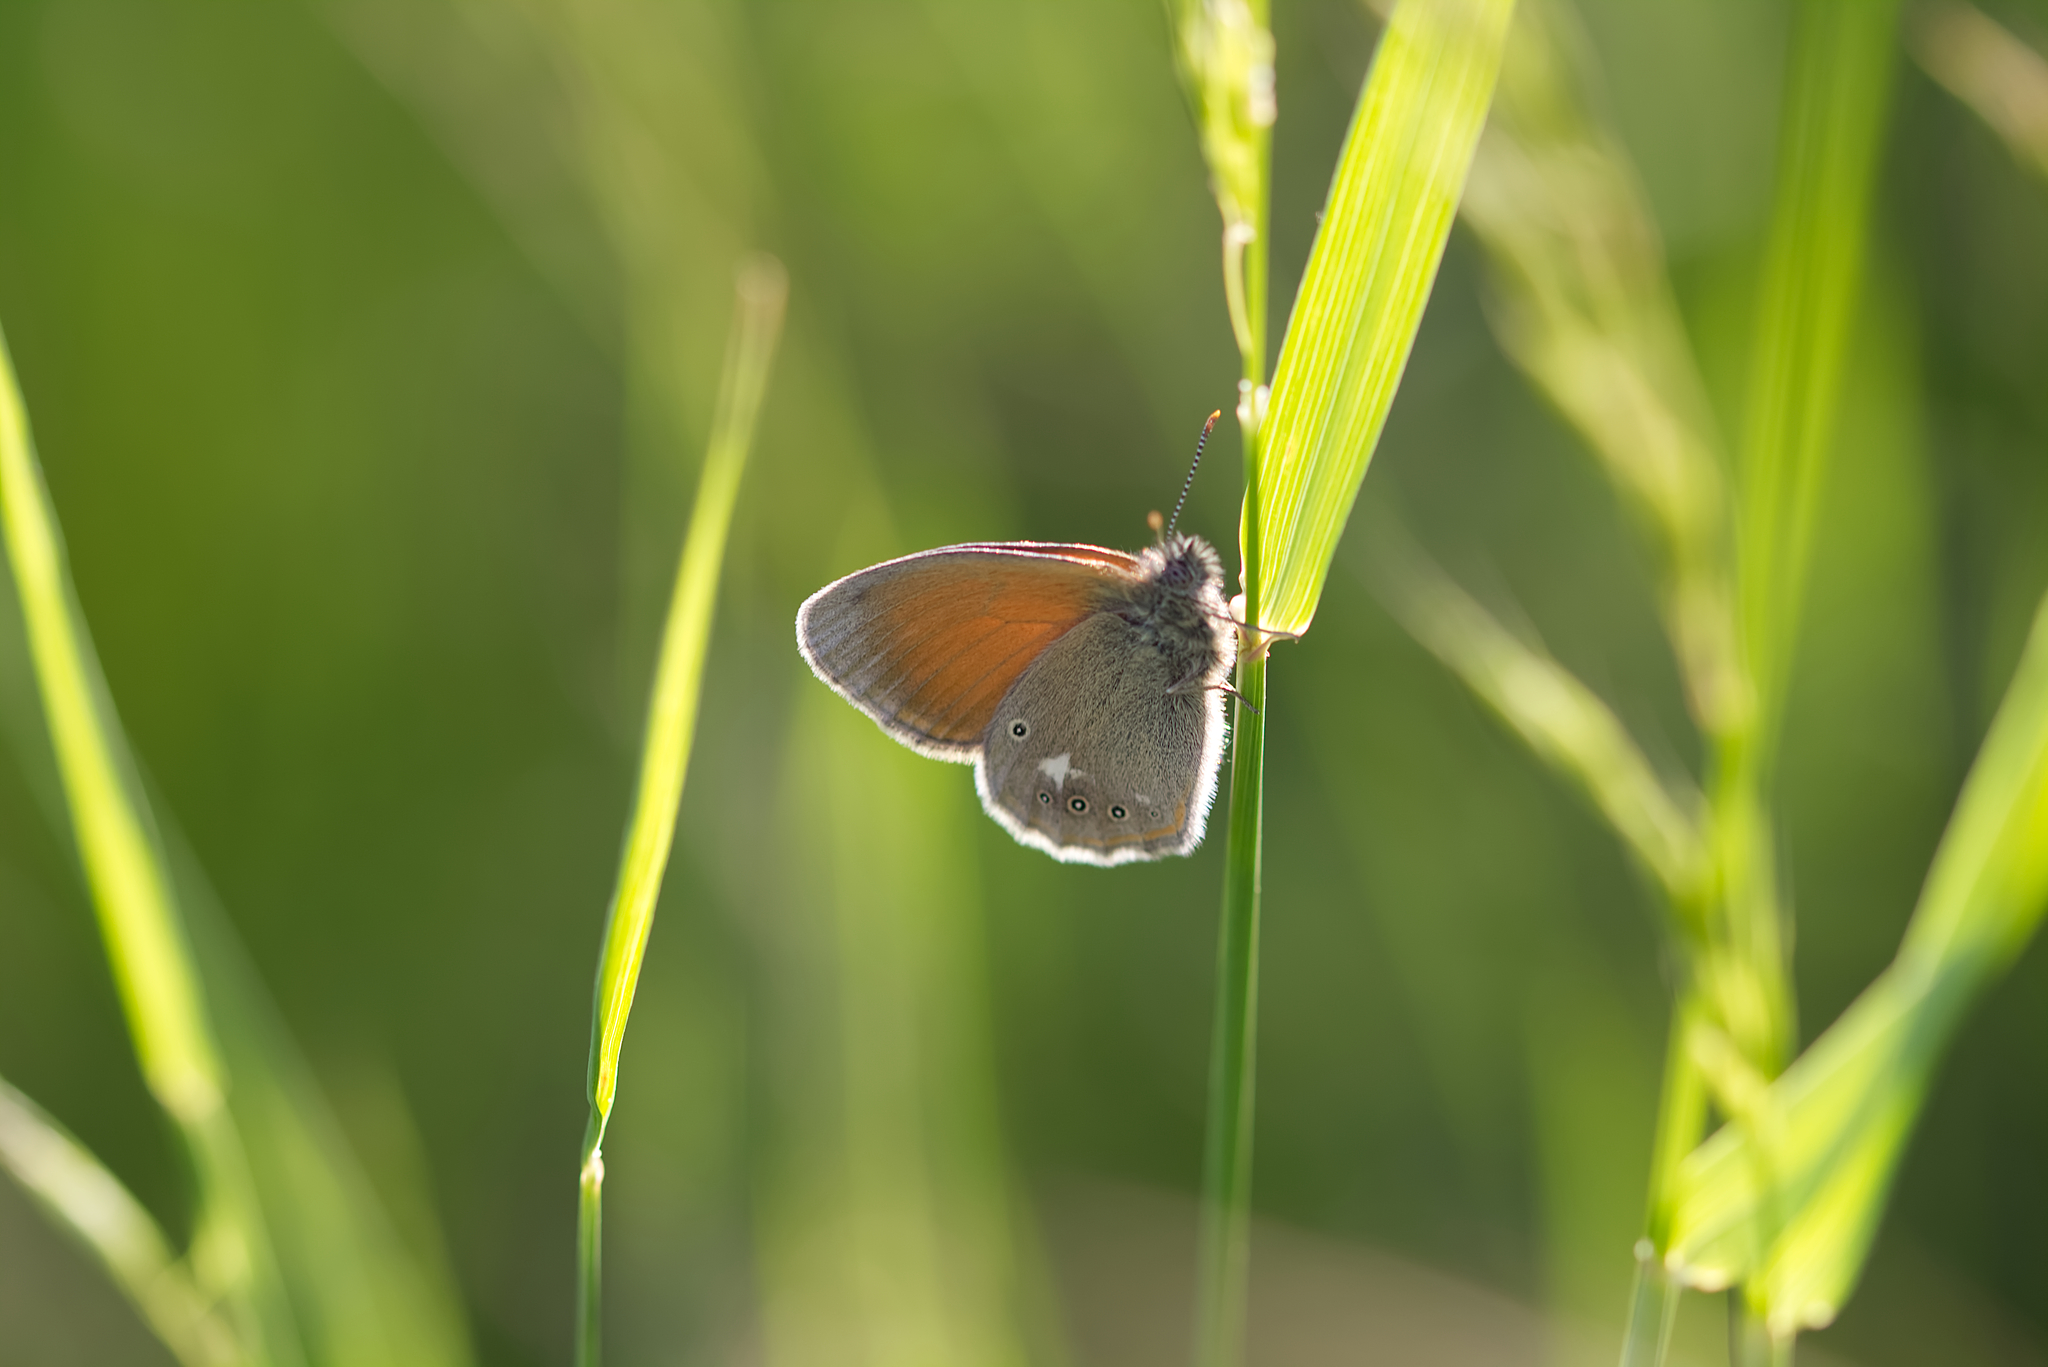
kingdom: Animalia
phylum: Arthropoda
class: Insecta
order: Lepidoptera
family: Nymphalidae
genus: Coenonympha
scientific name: Coenonympha iphis
